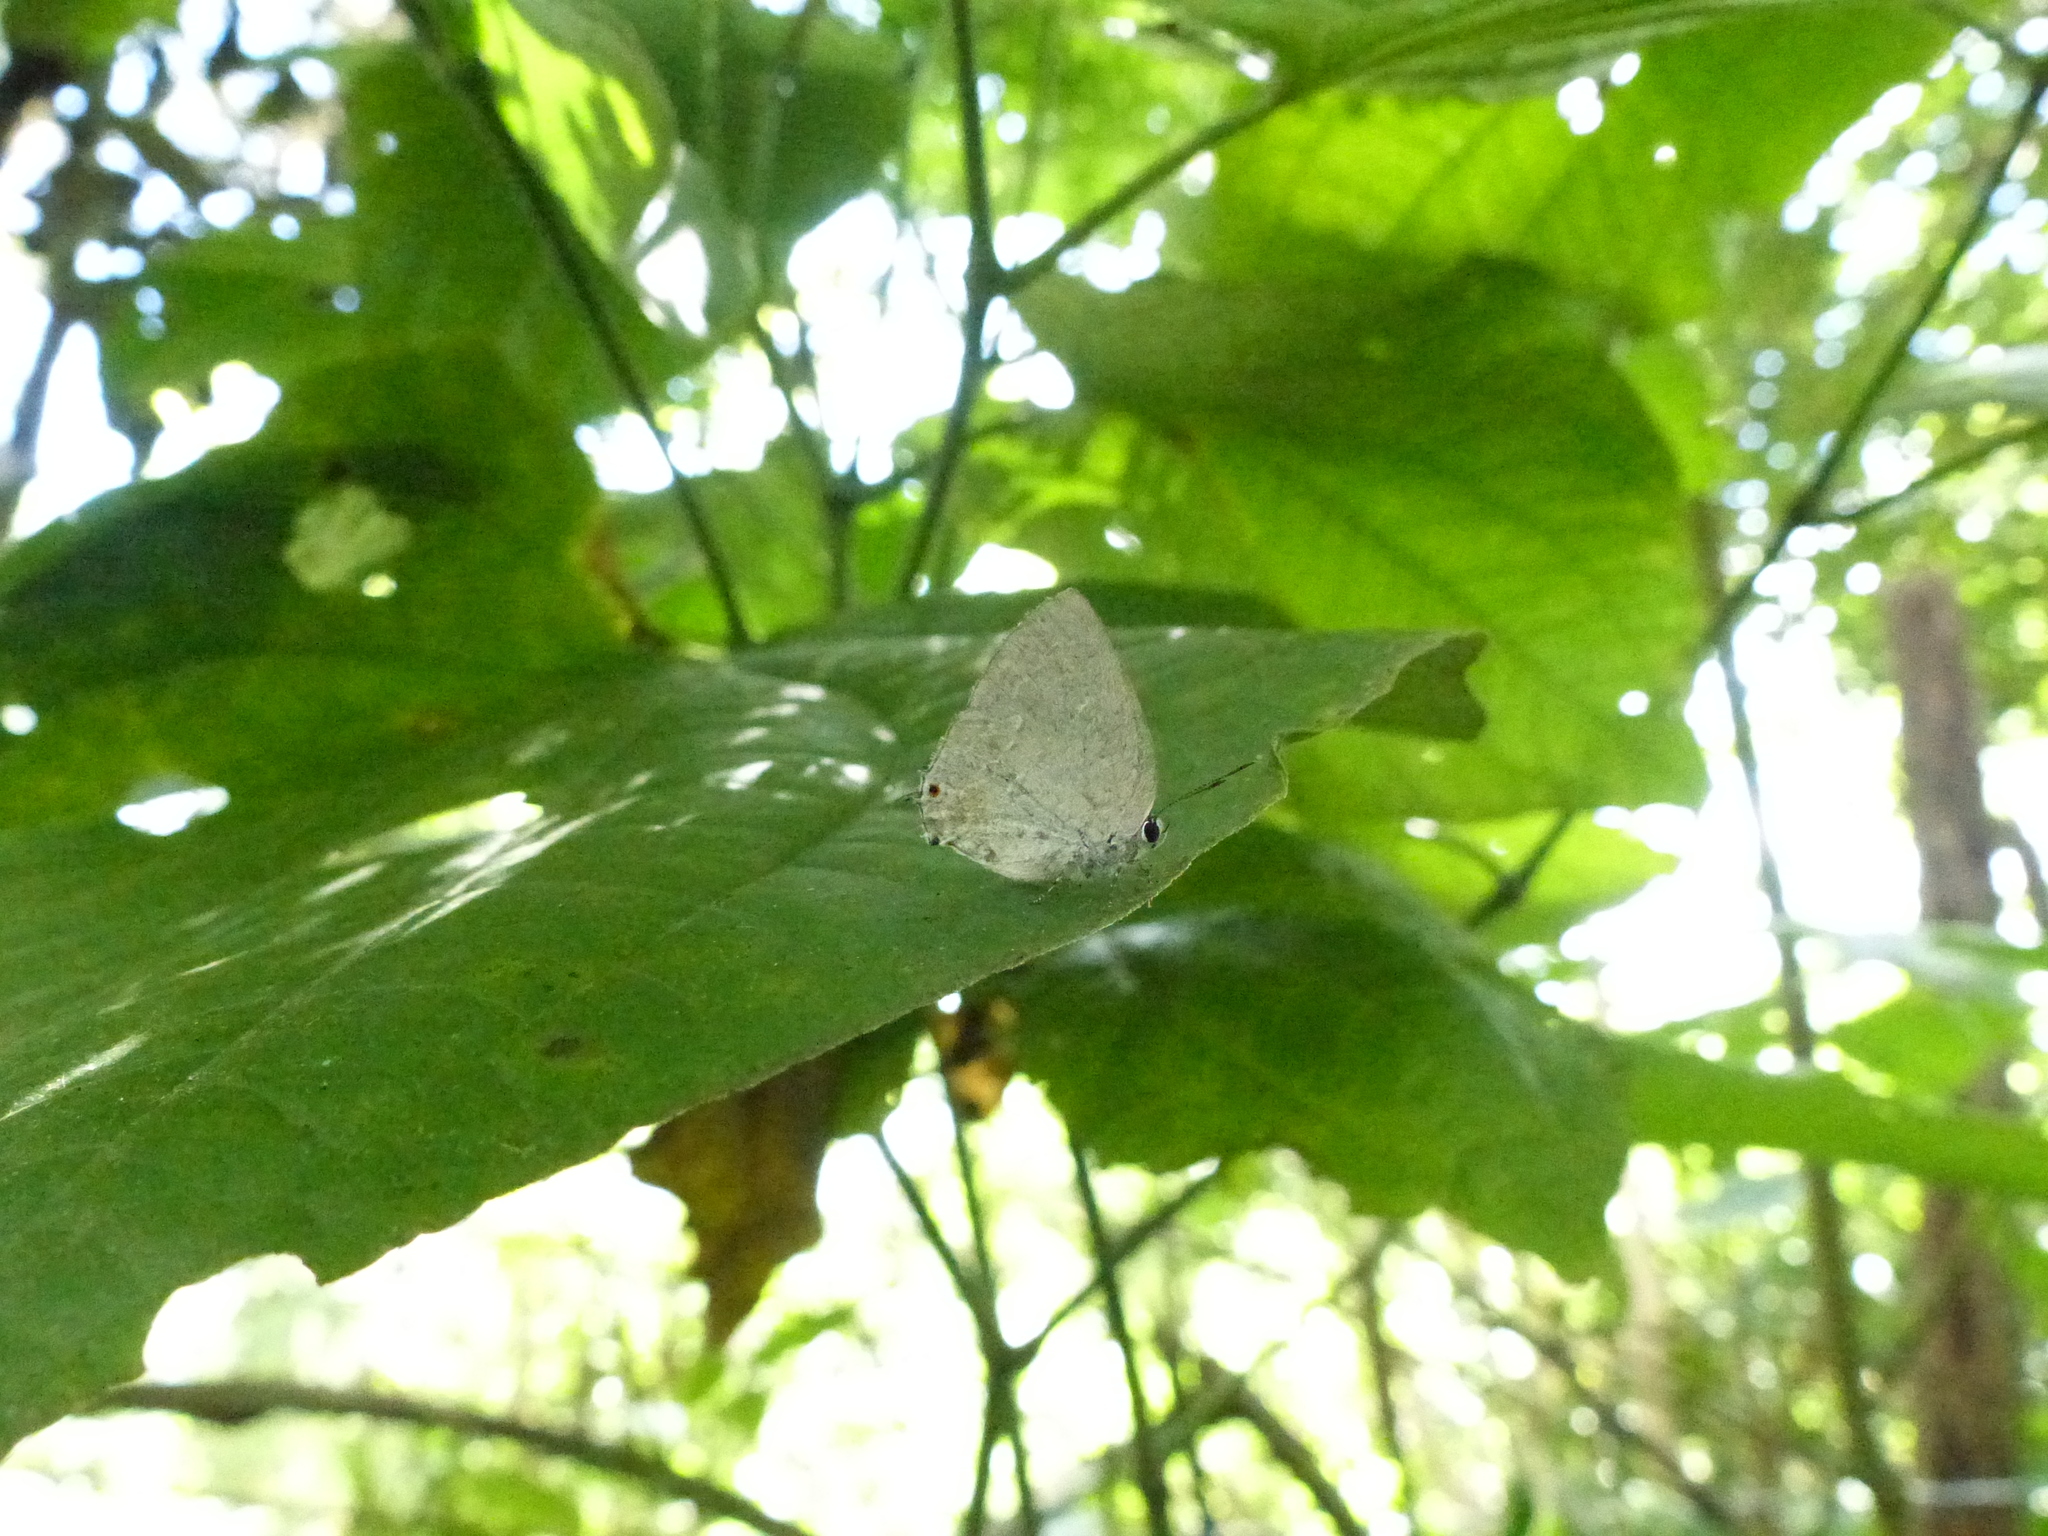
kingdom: Animalia
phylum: Arthropoda
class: Insecta
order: Lepidoptera
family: Lycaenidae
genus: Strephonota
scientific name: Strephonota tephraeus
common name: Pearly-gray hairstreak
